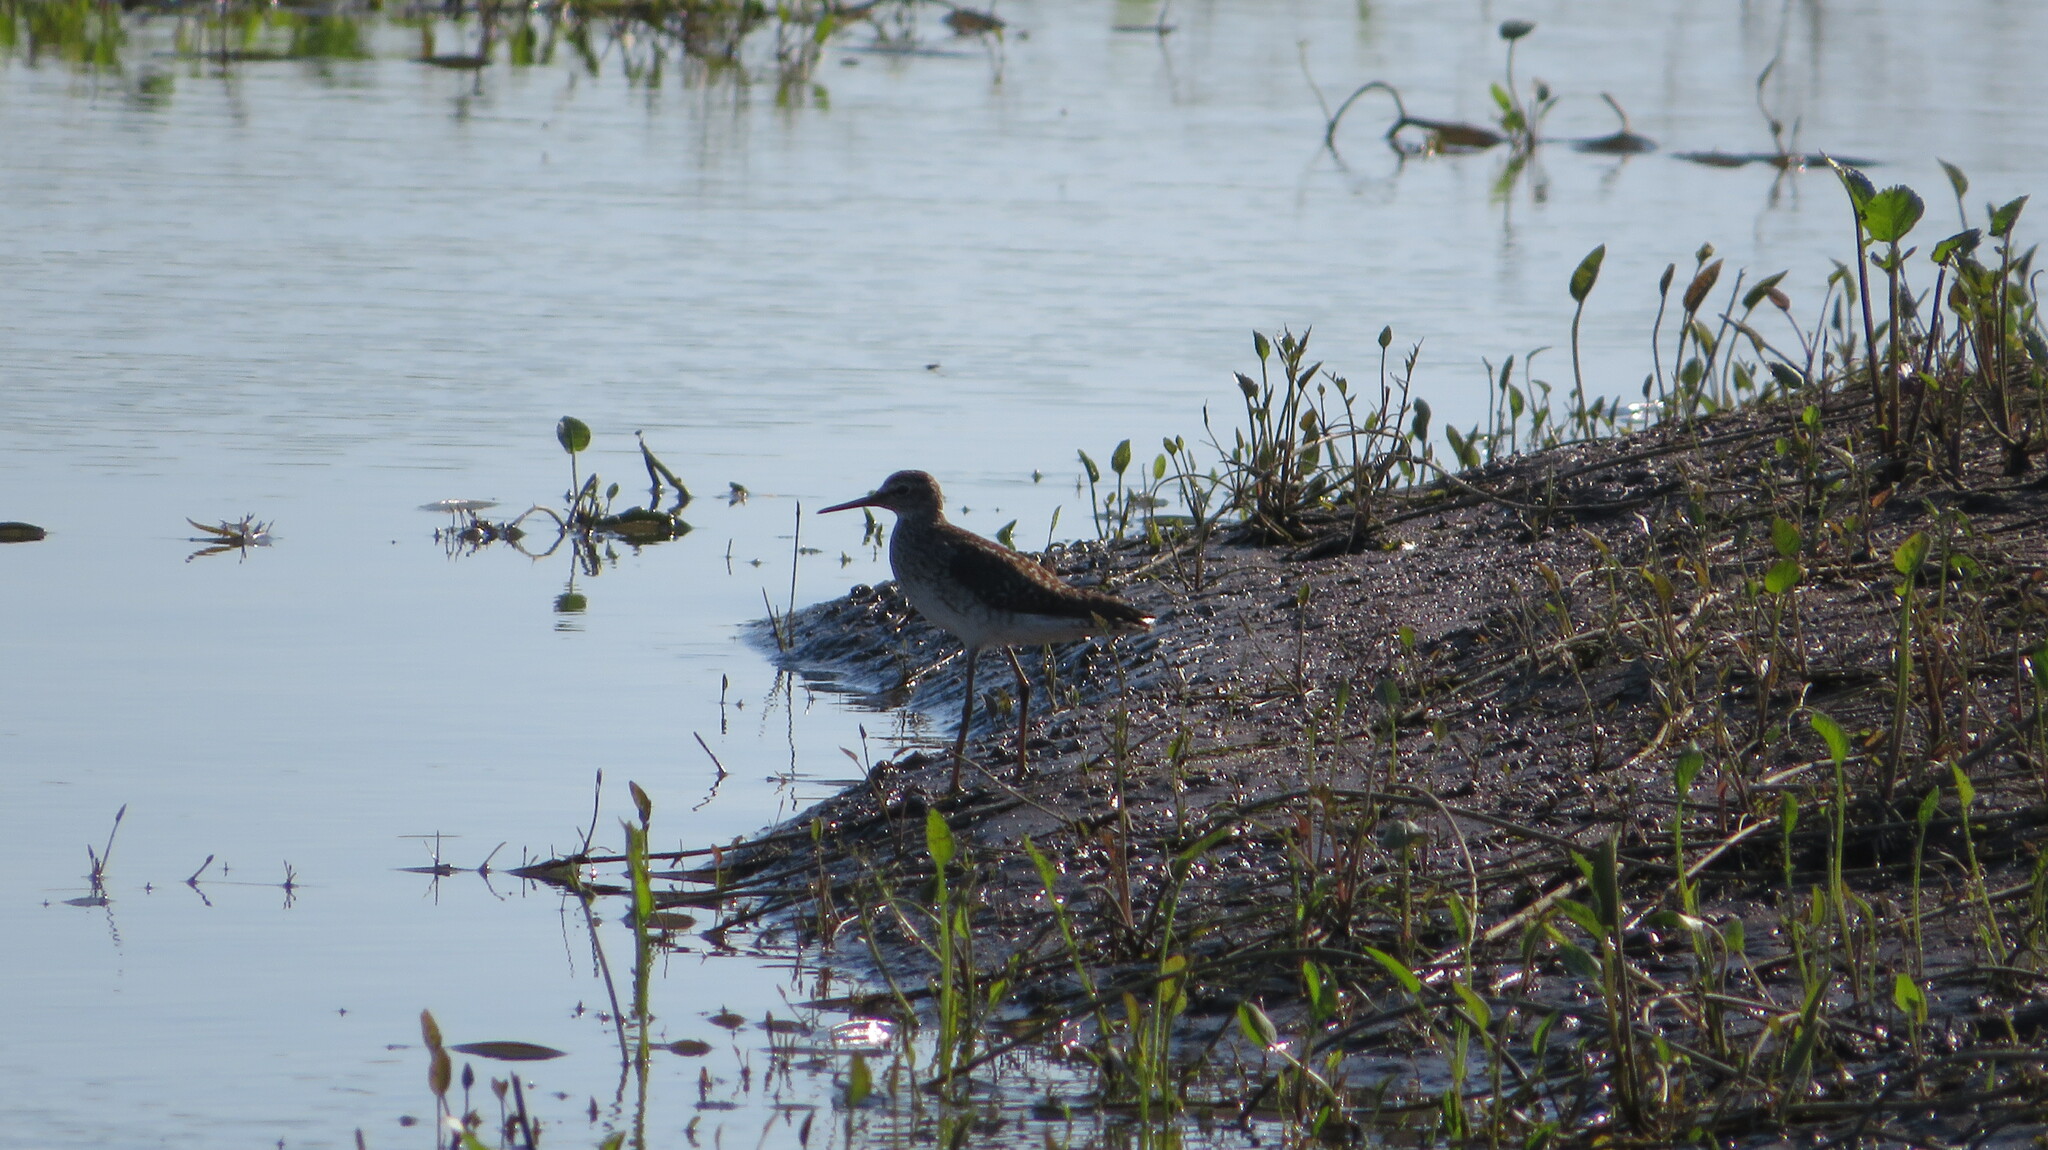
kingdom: Animalia
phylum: Chordata
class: Aves
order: Charadriiformes
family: Scolopacidae
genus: Tringa
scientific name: Tringa glareola
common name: Wood sandpiper
